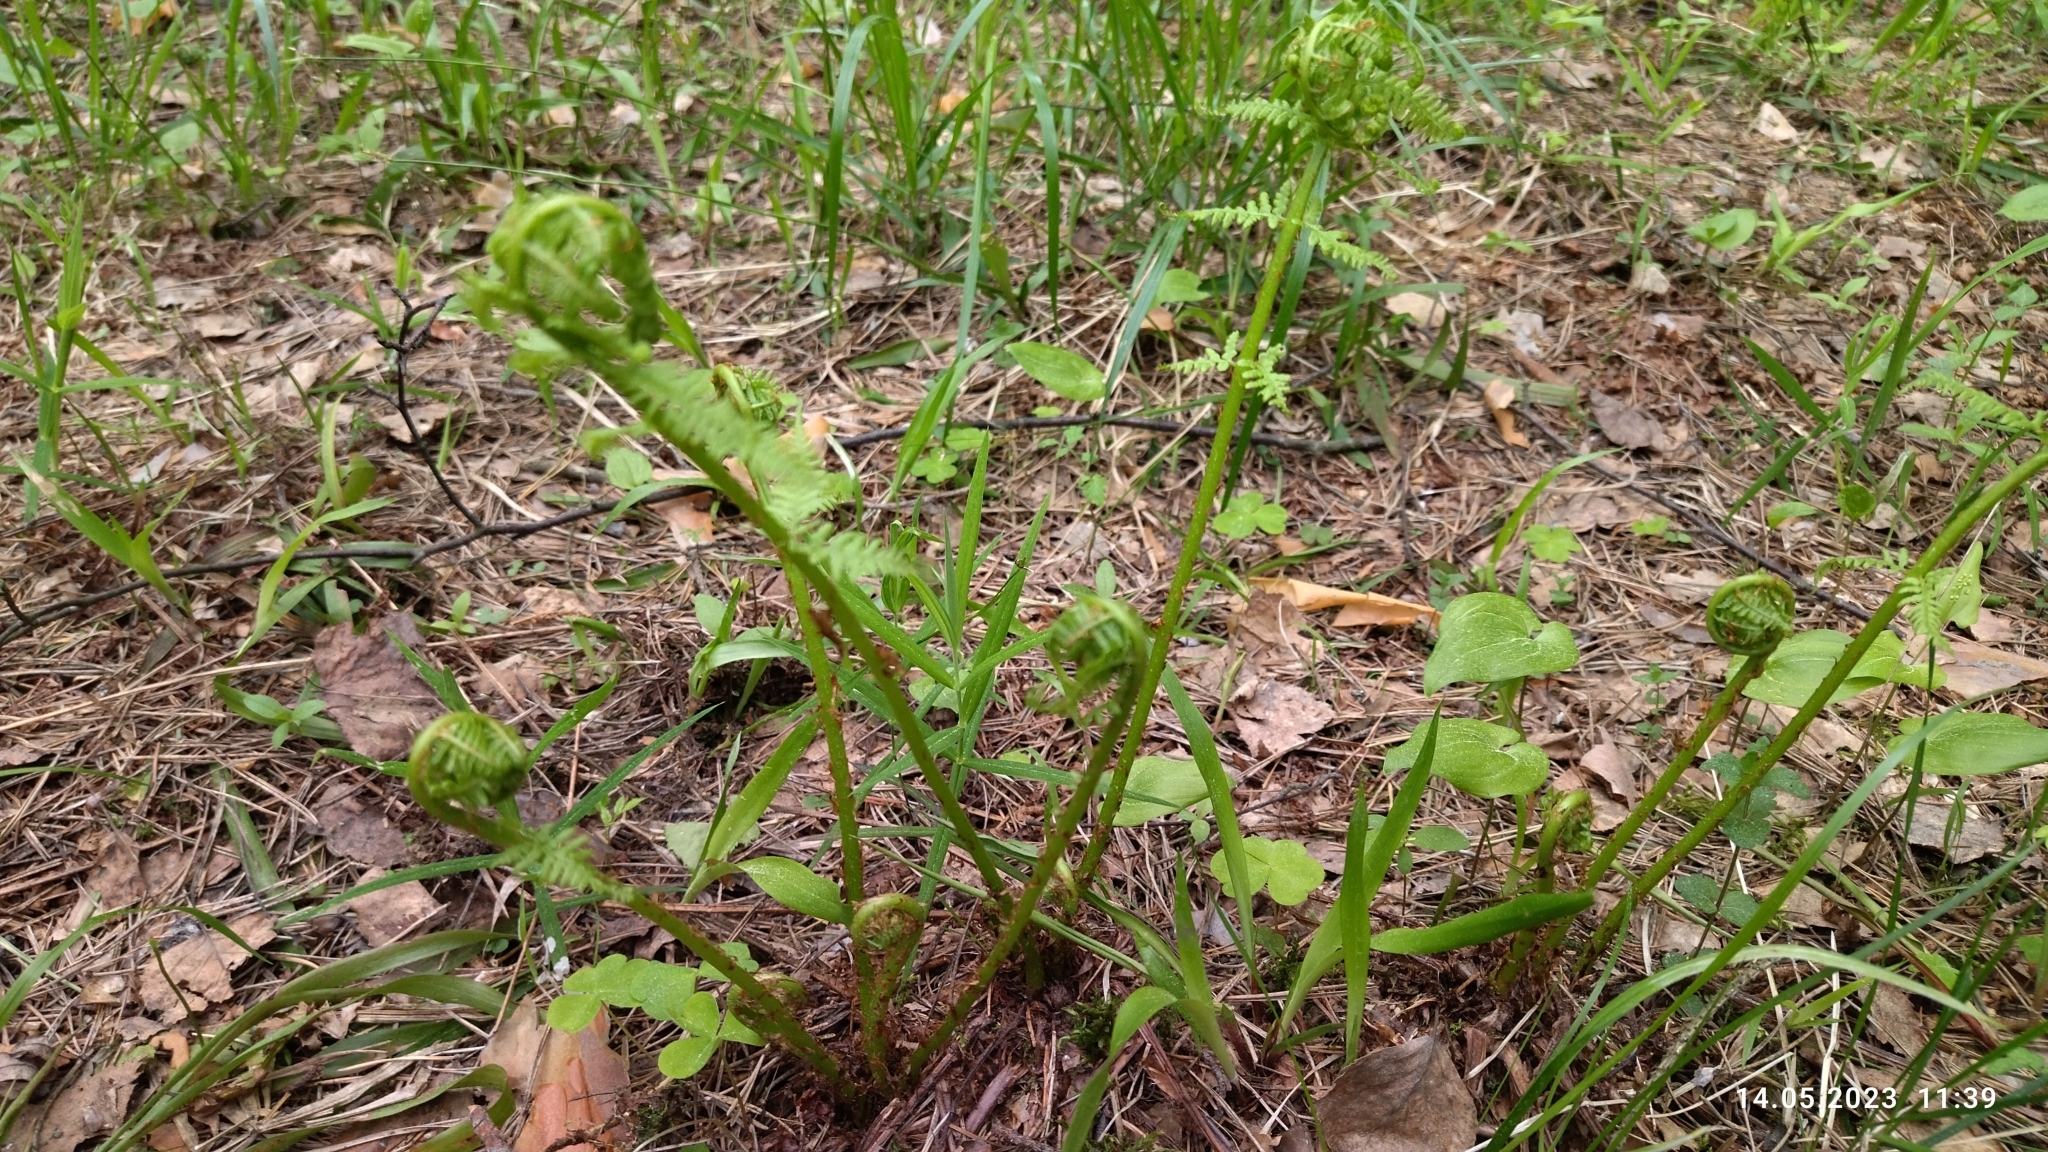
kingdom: Plantae
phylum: Tracheophyta
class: Polypodiopsida
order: Polypodiales
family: Athyriaceae
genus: Athyrium
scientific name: Athyrium filix-femina
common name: Lady fern
